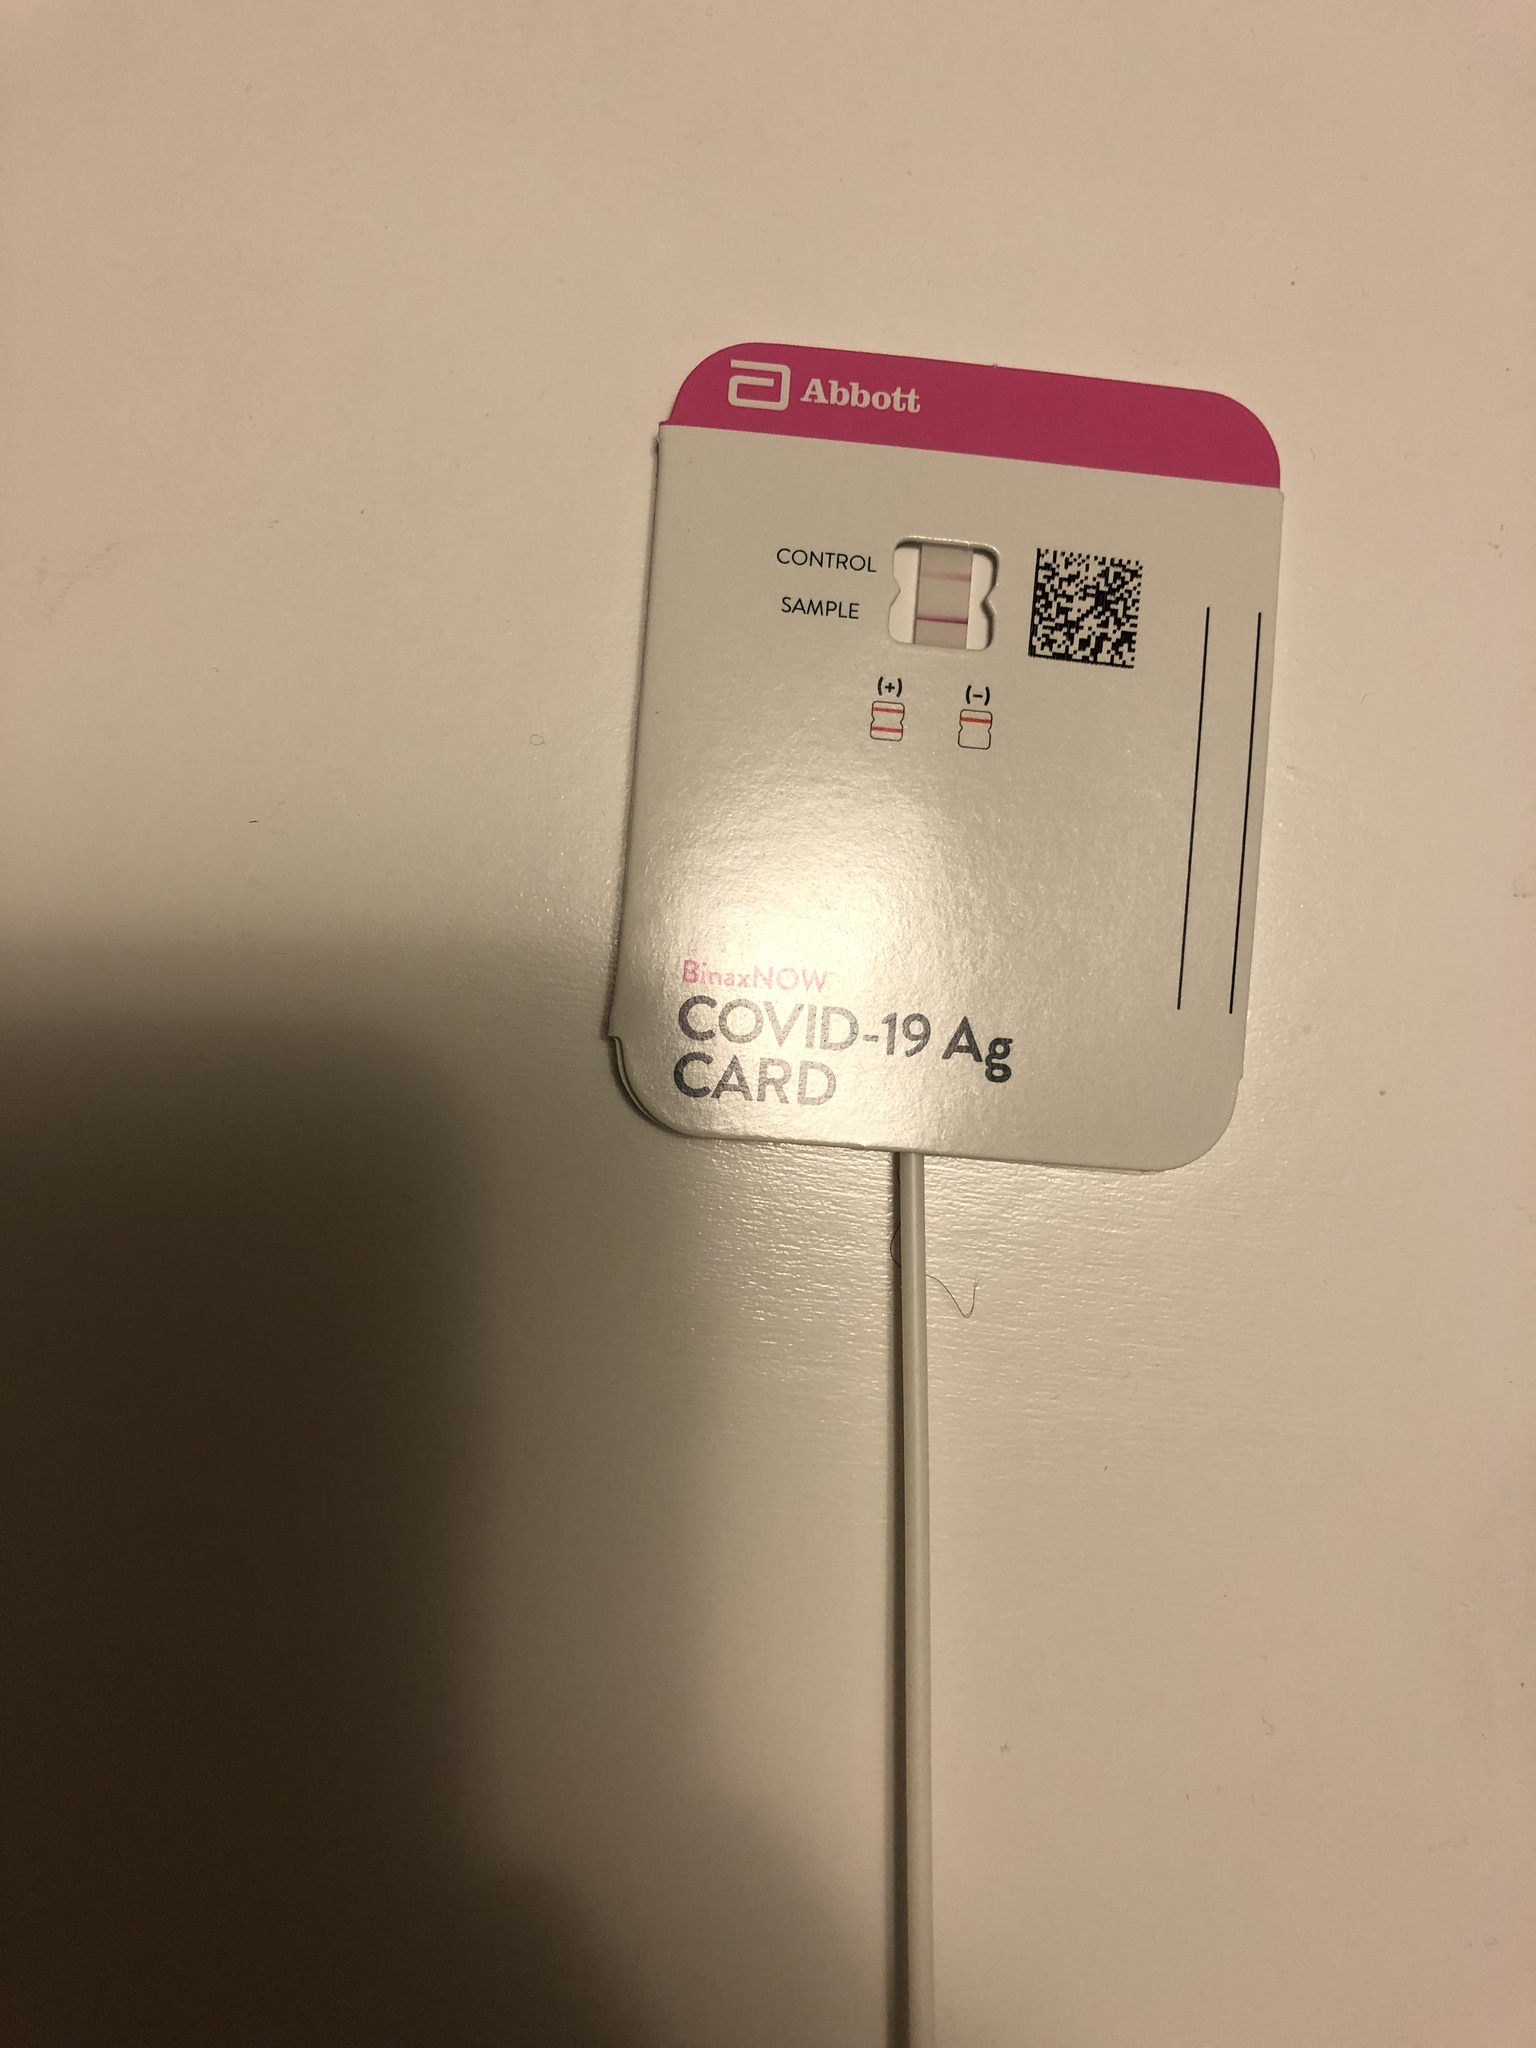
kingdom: Viruses
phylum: Pisuviricota
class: Pisoniviricetes
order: Nidovirales
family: Coronaviridae
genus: Betacoronavirus
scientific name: Betacoronavirus
